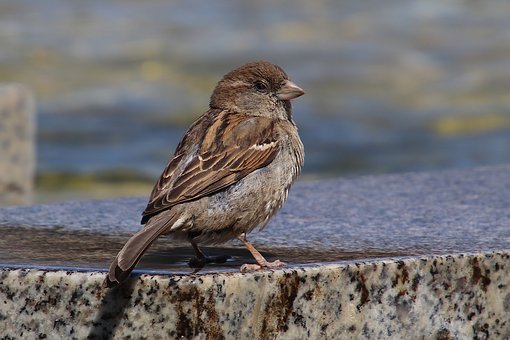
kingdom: Animalia
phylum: Chordata
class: Aves
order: Passeriformes
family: Passeridae
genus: Passer
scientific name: Passer domesticus
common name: House sparrow
